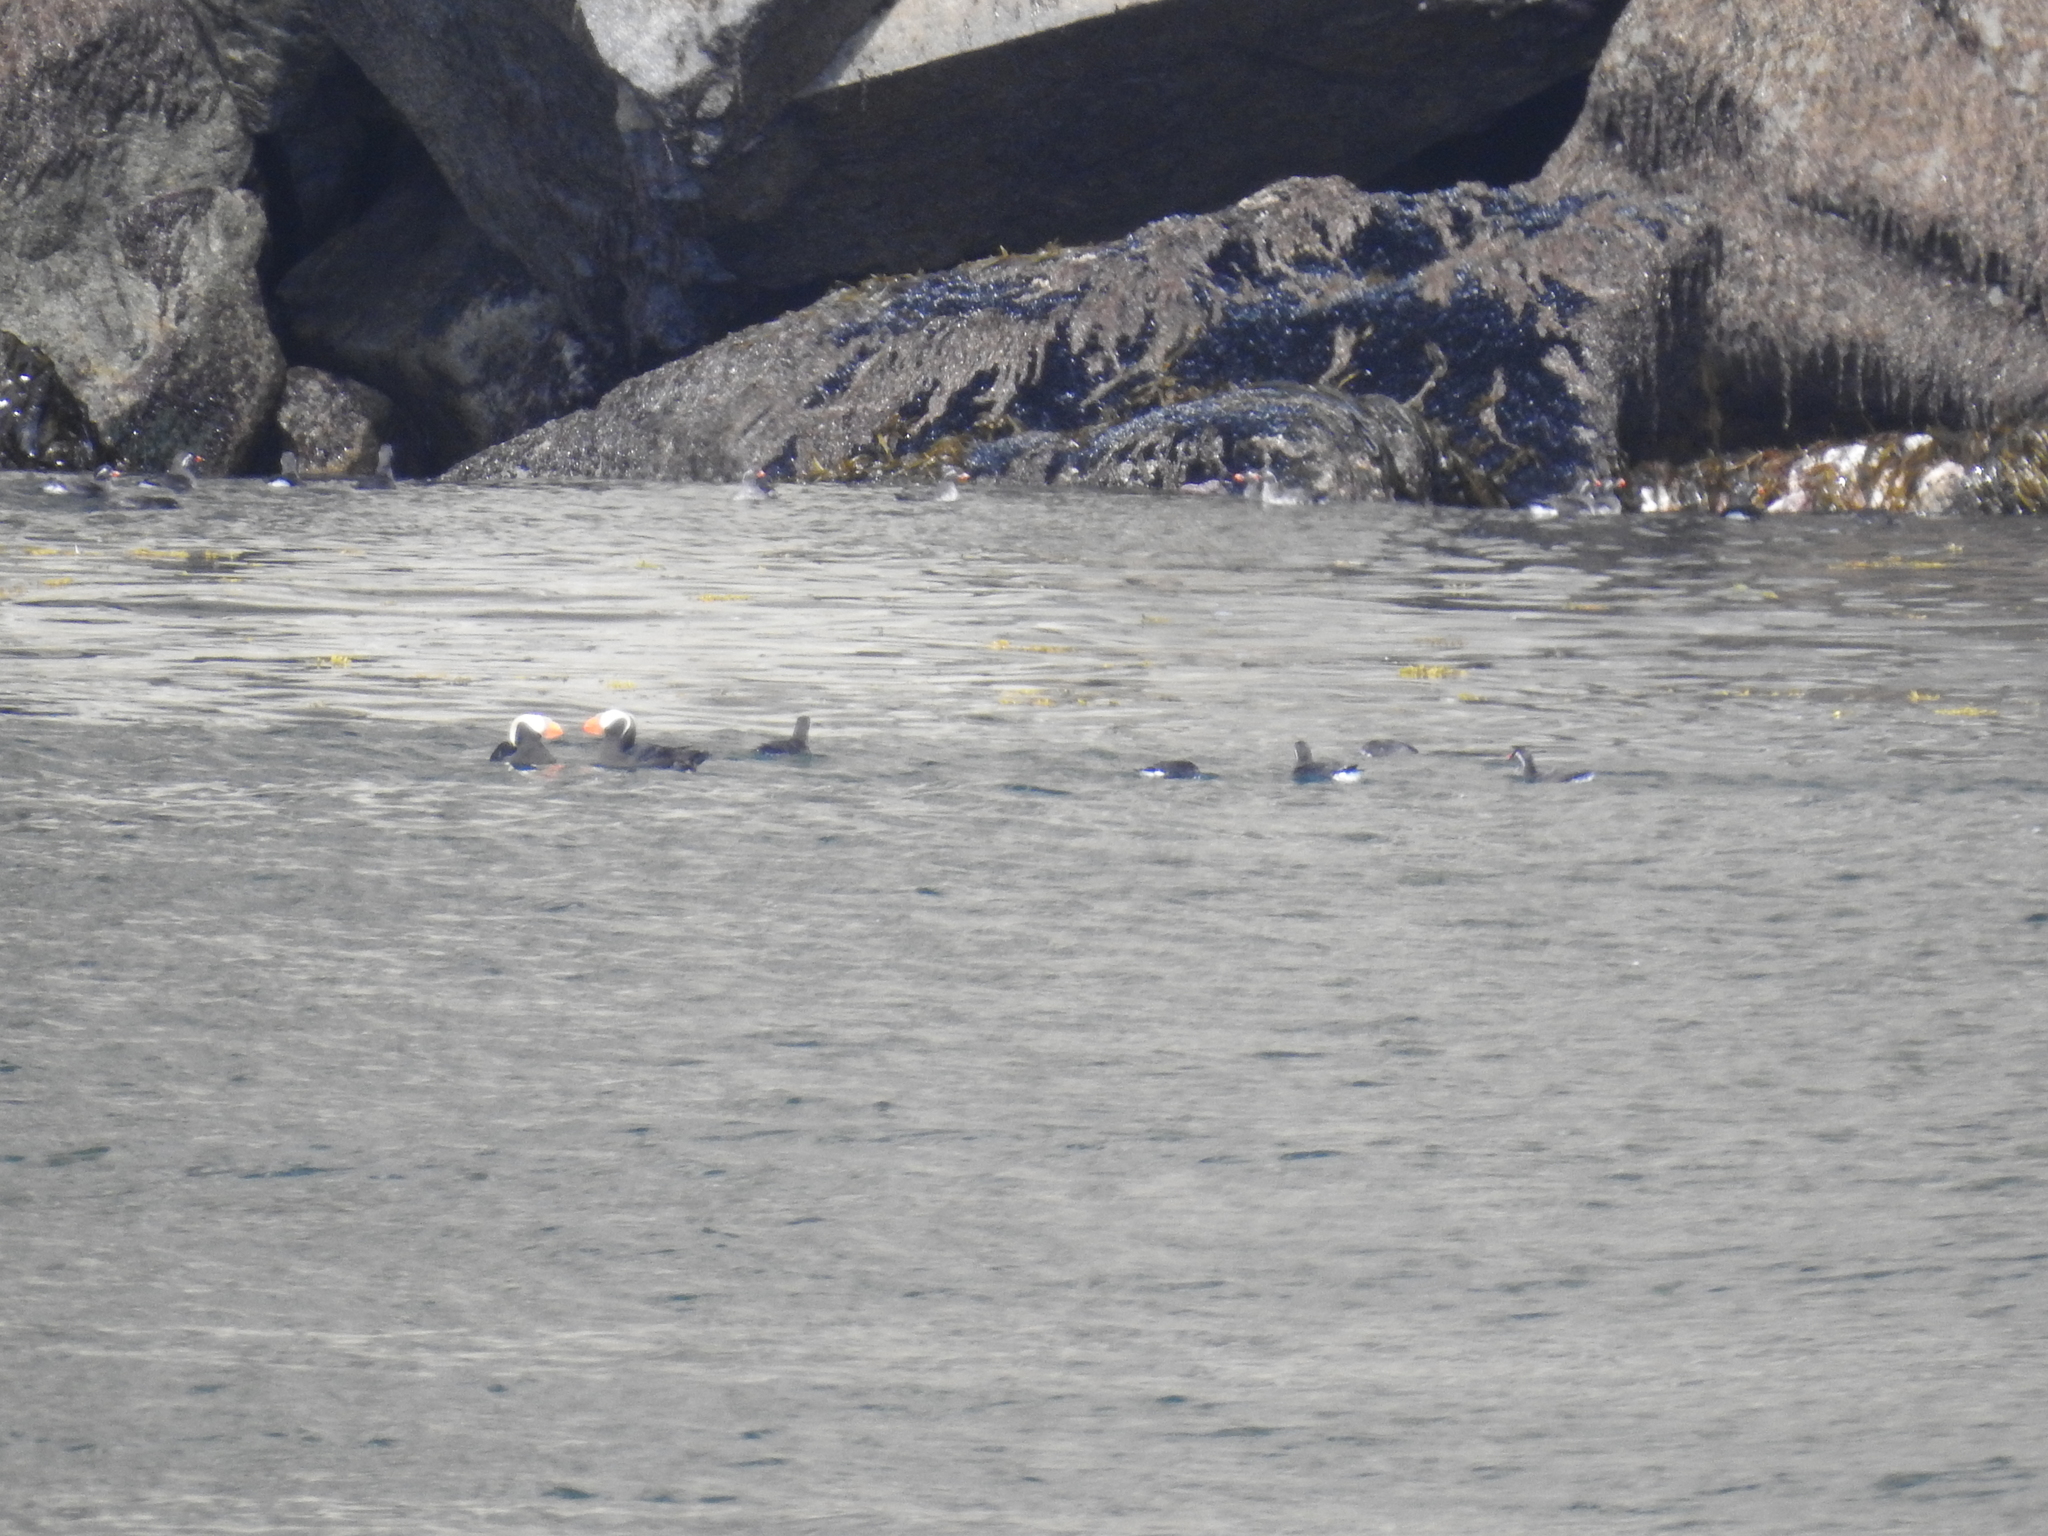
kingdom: Animalia
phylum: Chordata
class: Aves
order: Charadriiformes
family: Alcidae
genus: Fratercula
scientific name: Fratercula cirrhata
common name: Tufted puffin
